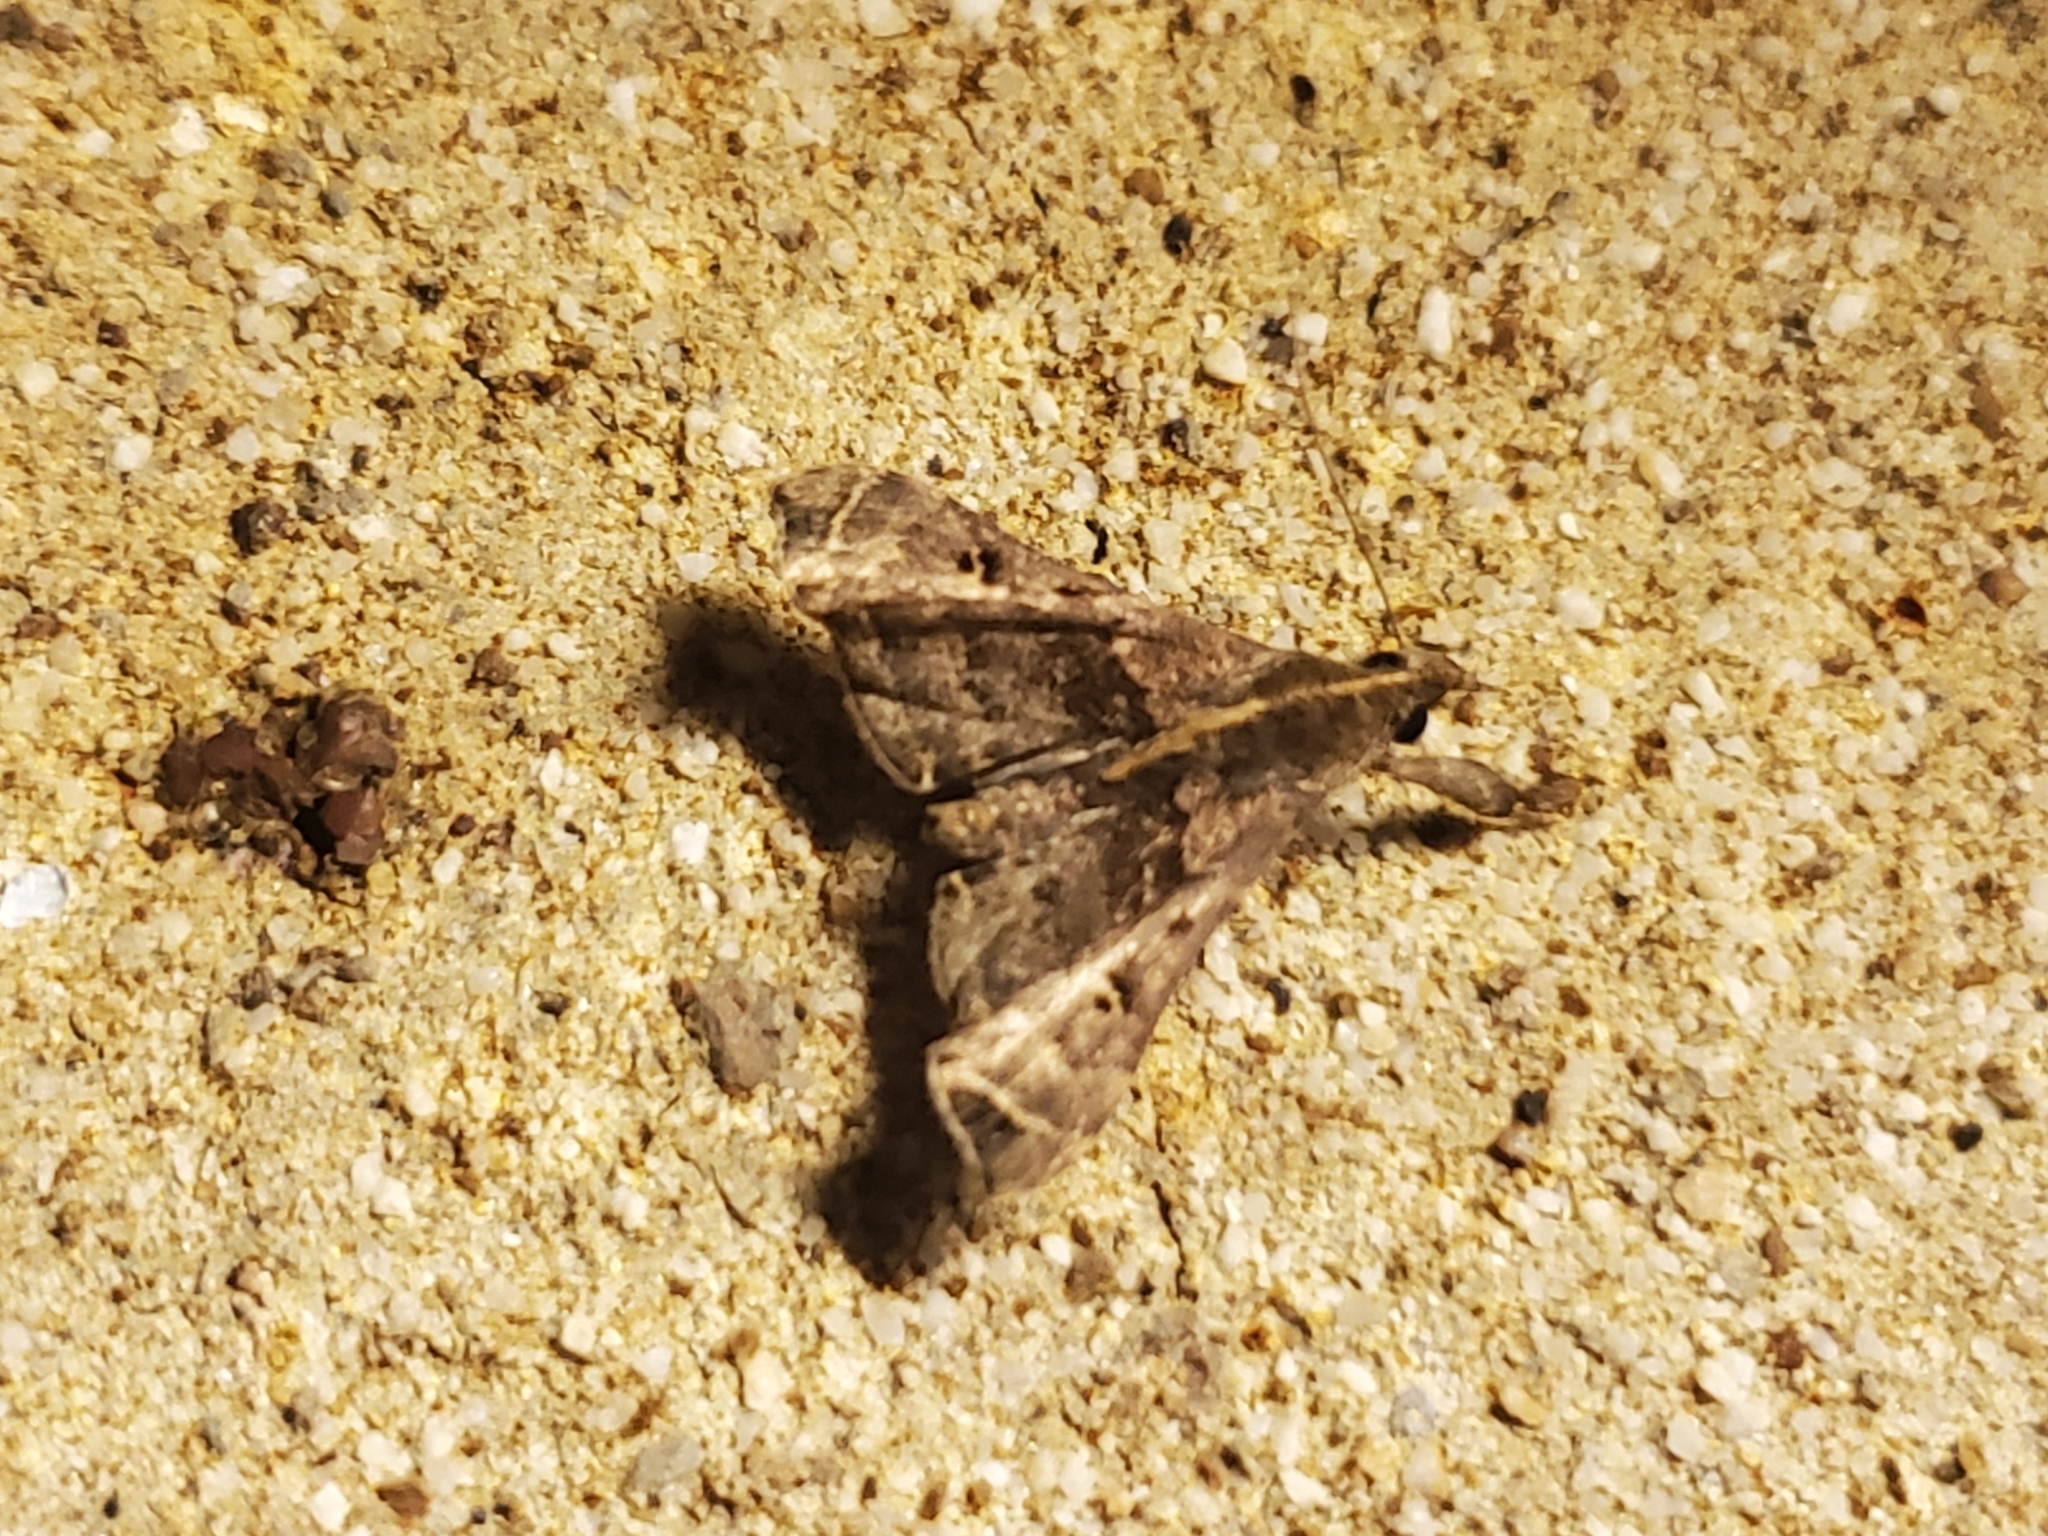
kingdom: Animalia
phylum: Arthropoda
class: Insecta
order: Lepidoptera
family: Erebidae
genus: Palthis
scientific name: Palthis asopialis
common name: Faint-spotted palthis moth
